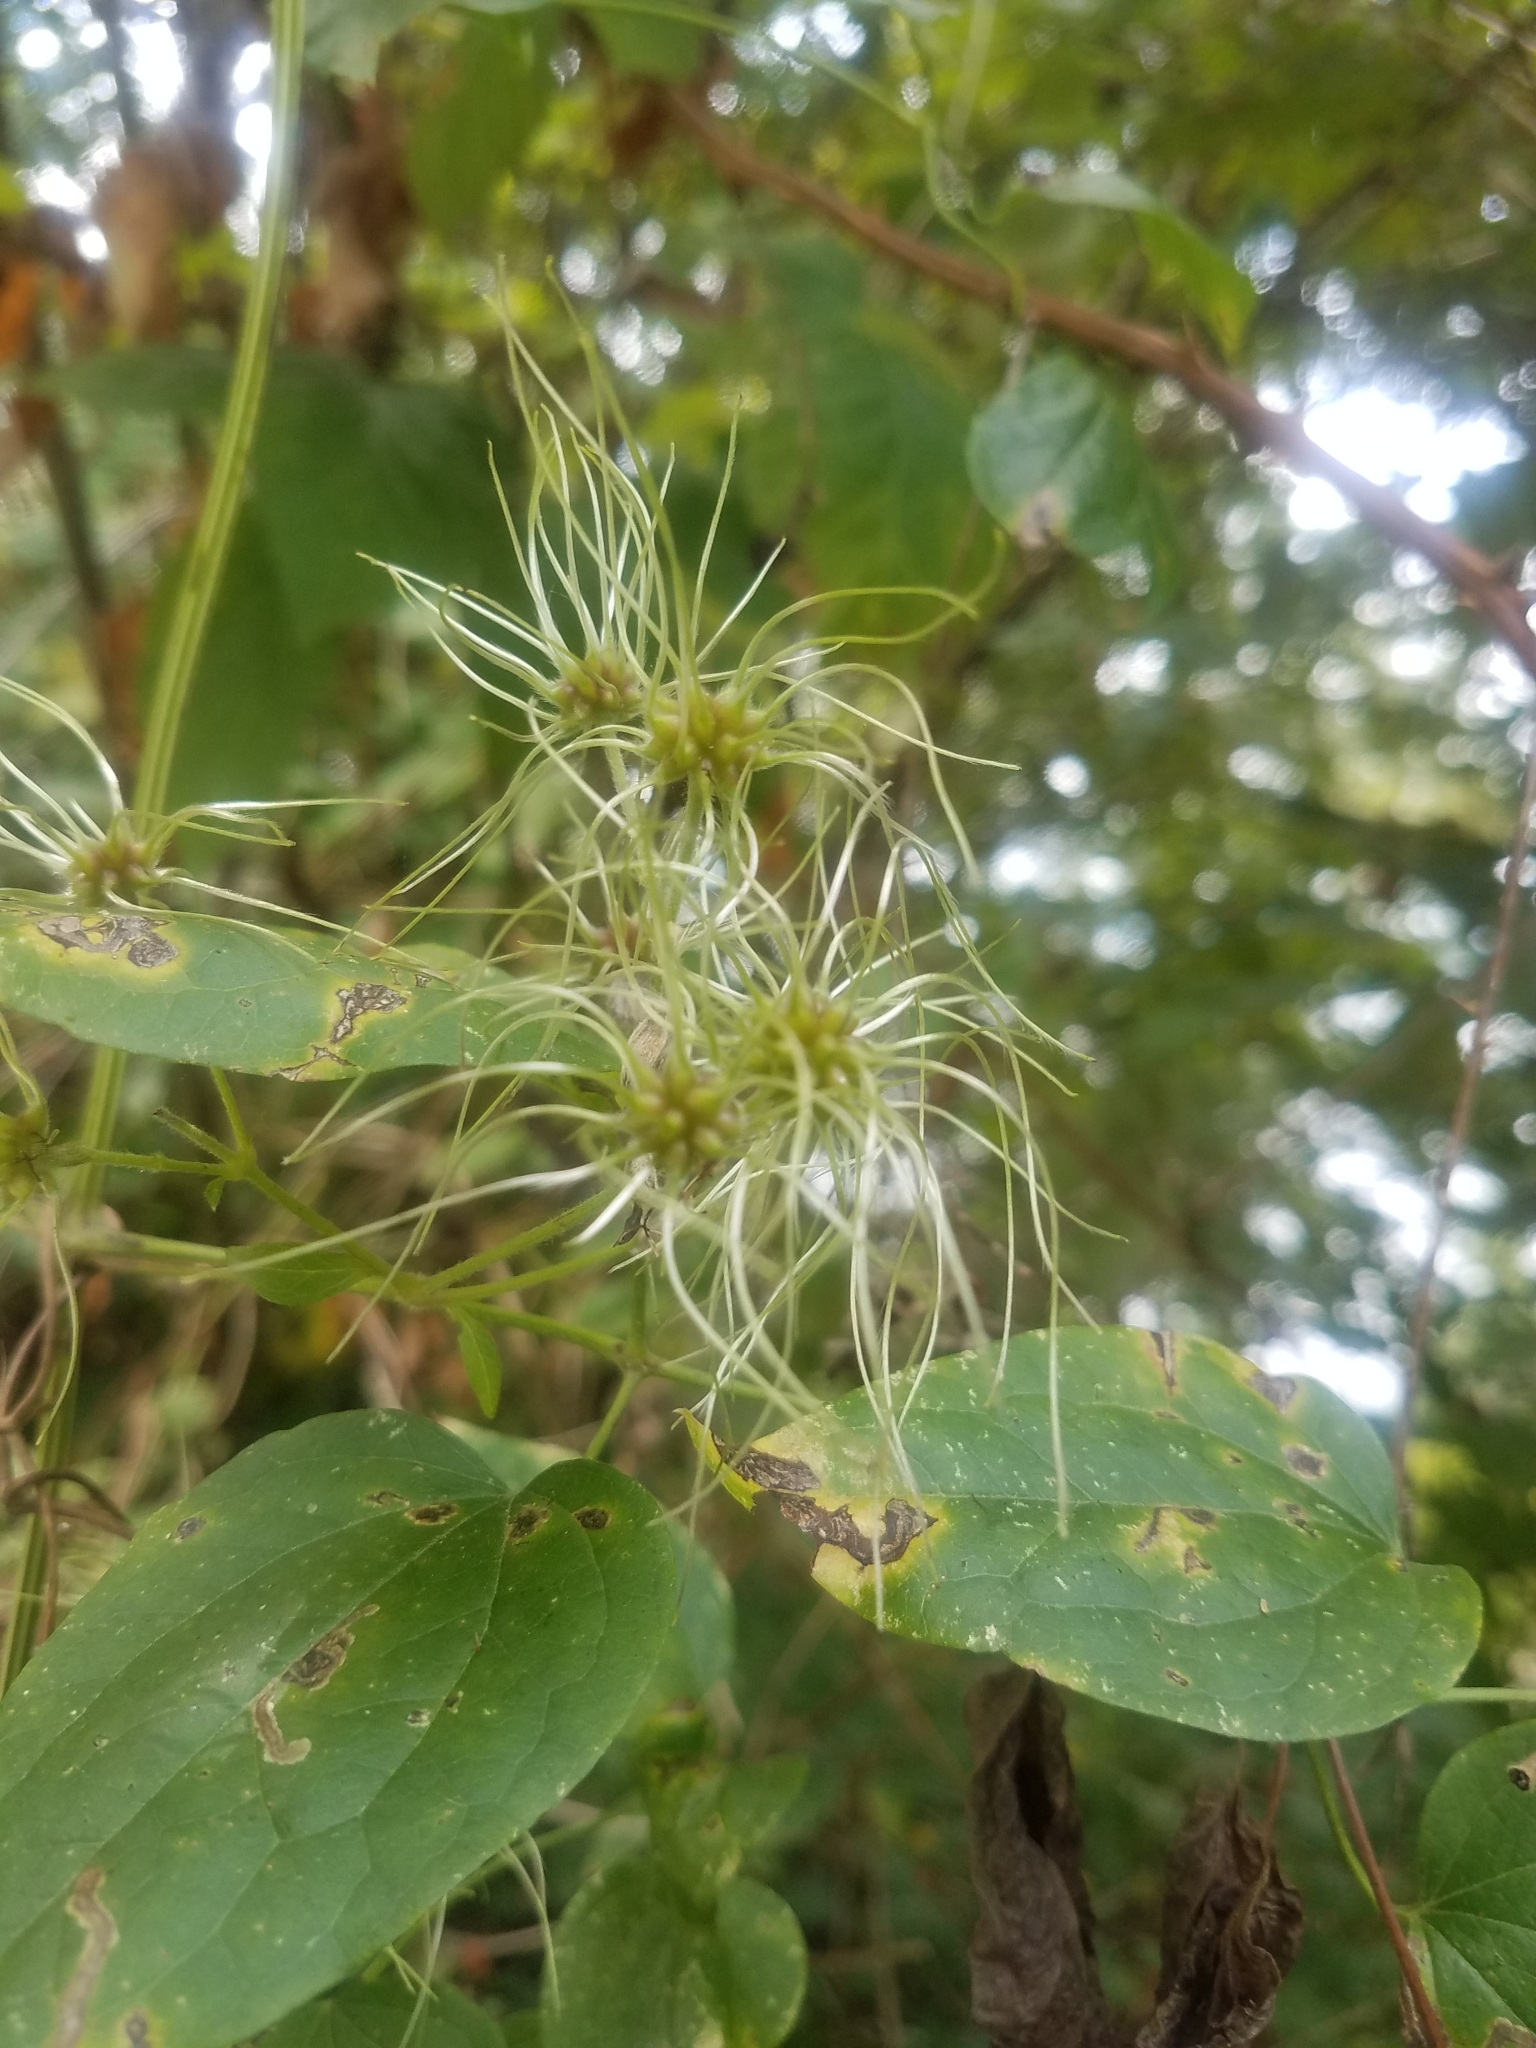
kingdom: Plantae
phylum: Tracheophyta
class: Magnoliopsida
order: Ranunculales
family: Ranunculaceae
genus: Clematis
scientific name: Clematis vitalba
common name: Evergreen clematis
